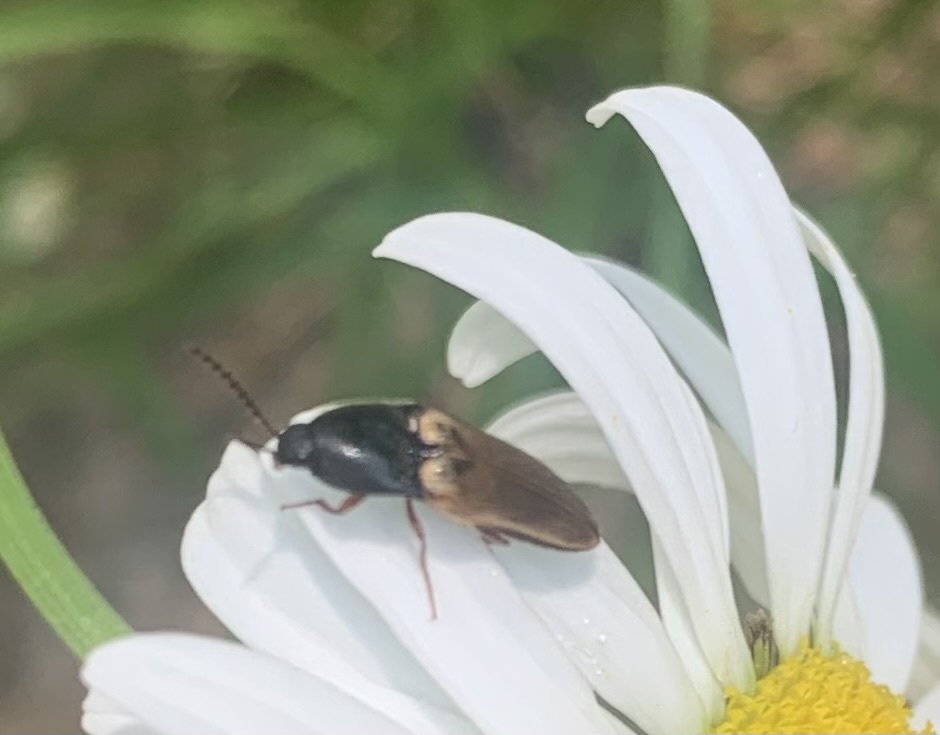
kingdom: Animalia
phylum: Arthropoda
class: Insecta
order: Coleoptera
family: Elateridae
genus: Ampedus
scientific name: Ampedus nigricollis
